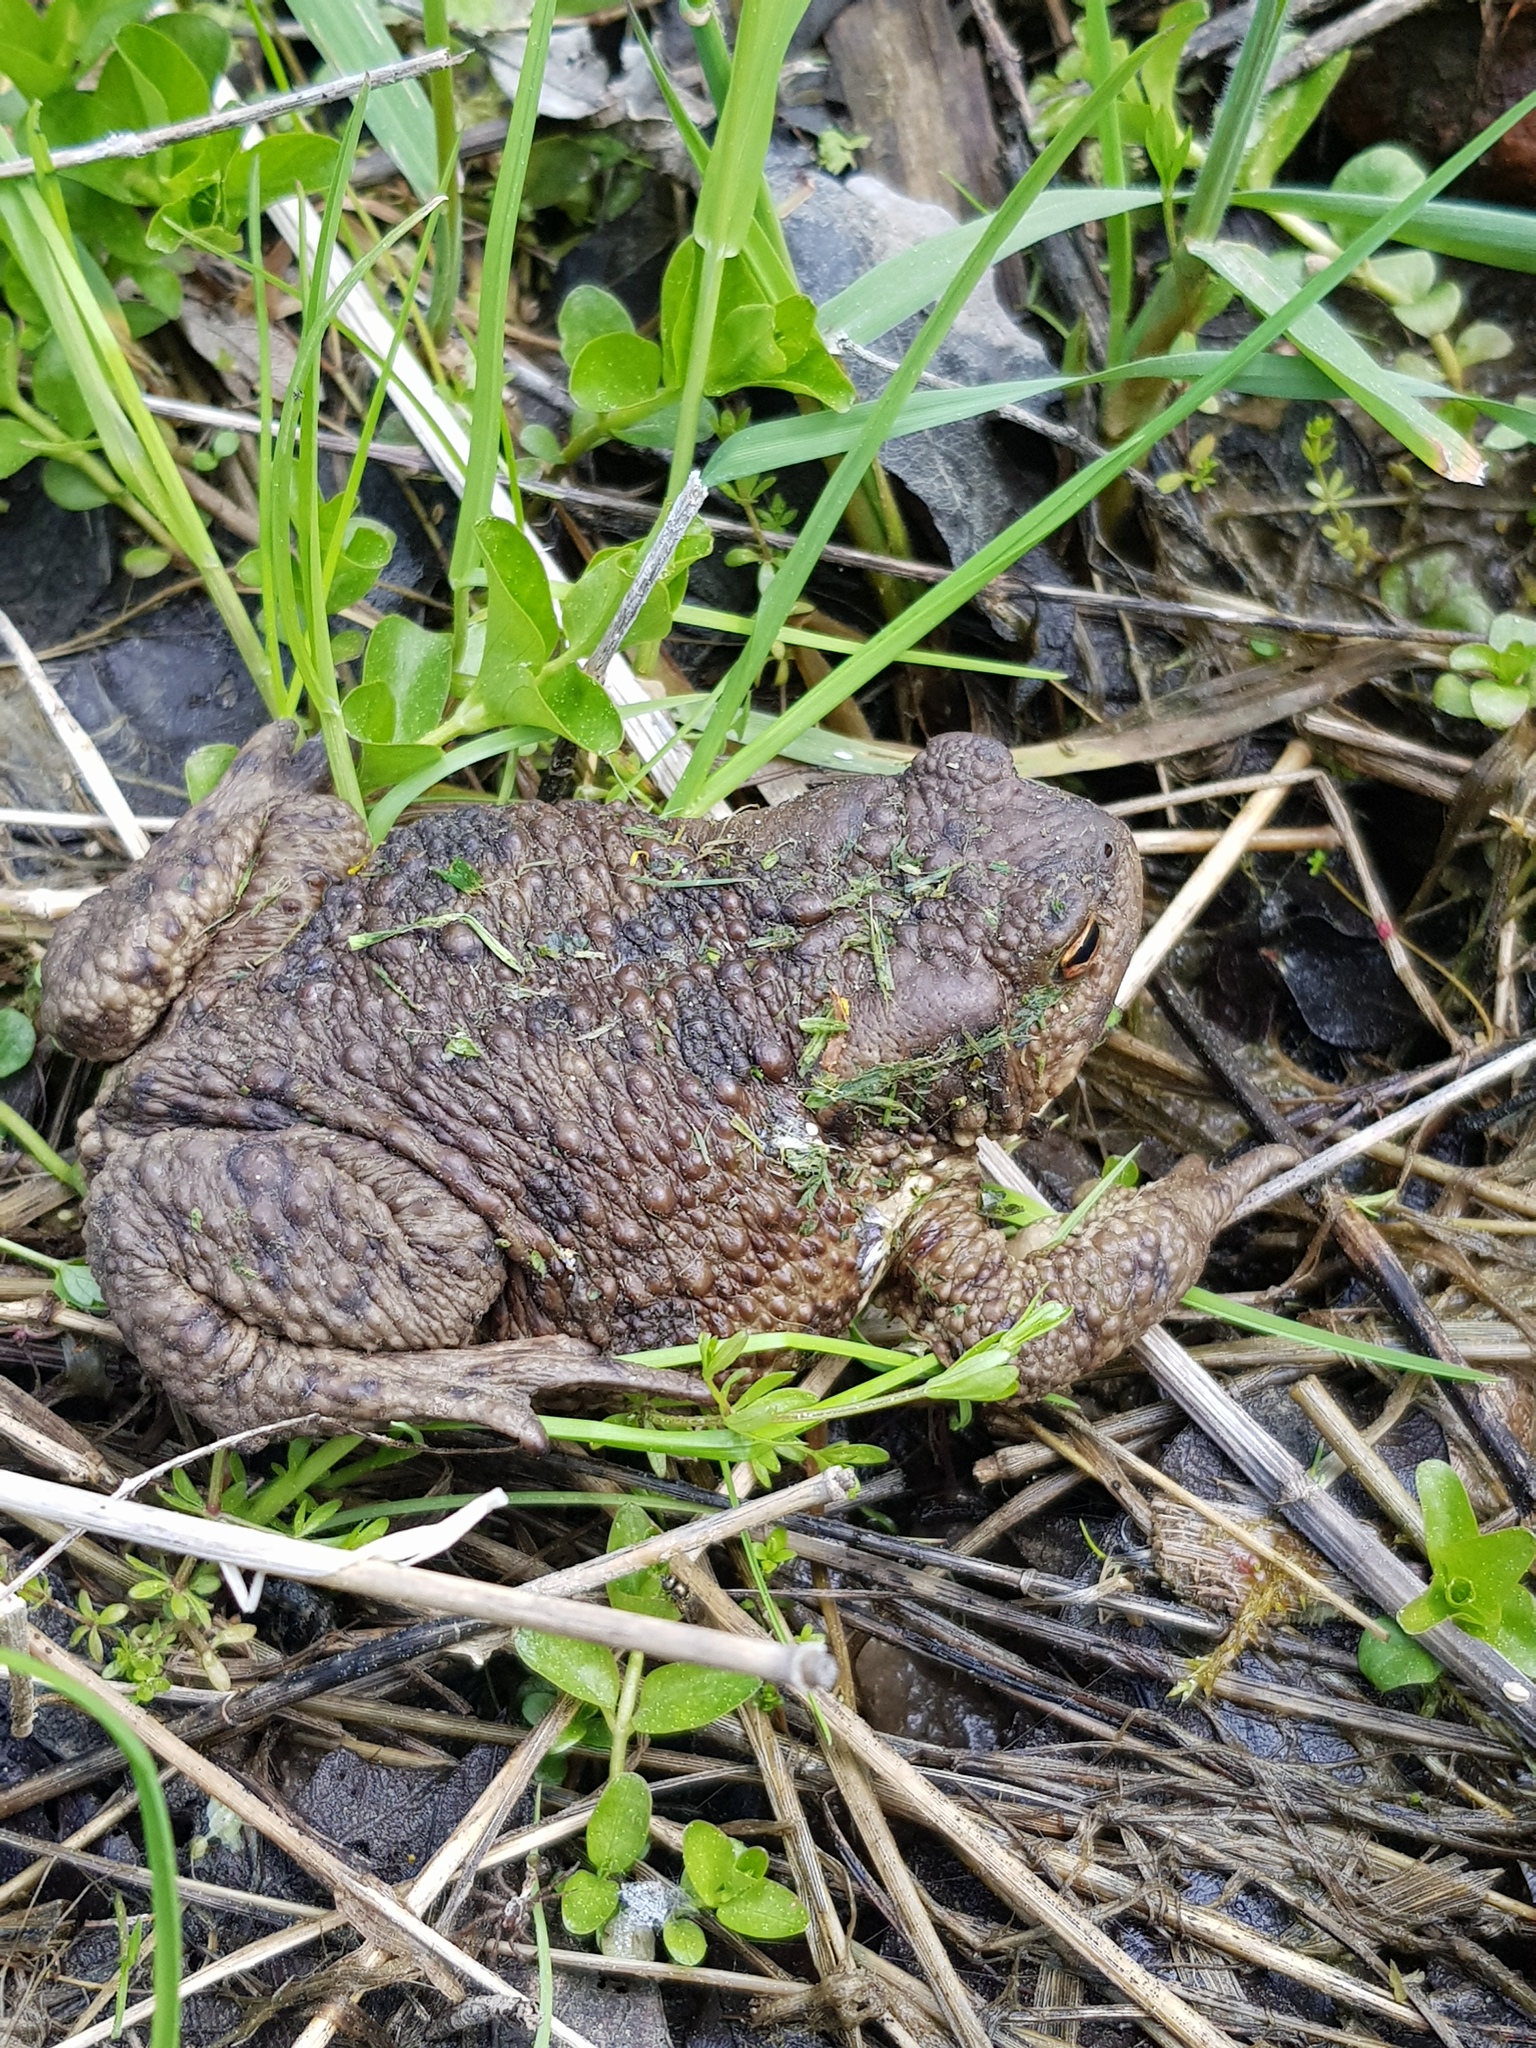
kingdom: Animalia
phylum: Chordata
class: Amphibia
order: Anura
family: Bufonidae
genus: Bufo
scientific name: Bufo bufo
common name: Common toad
